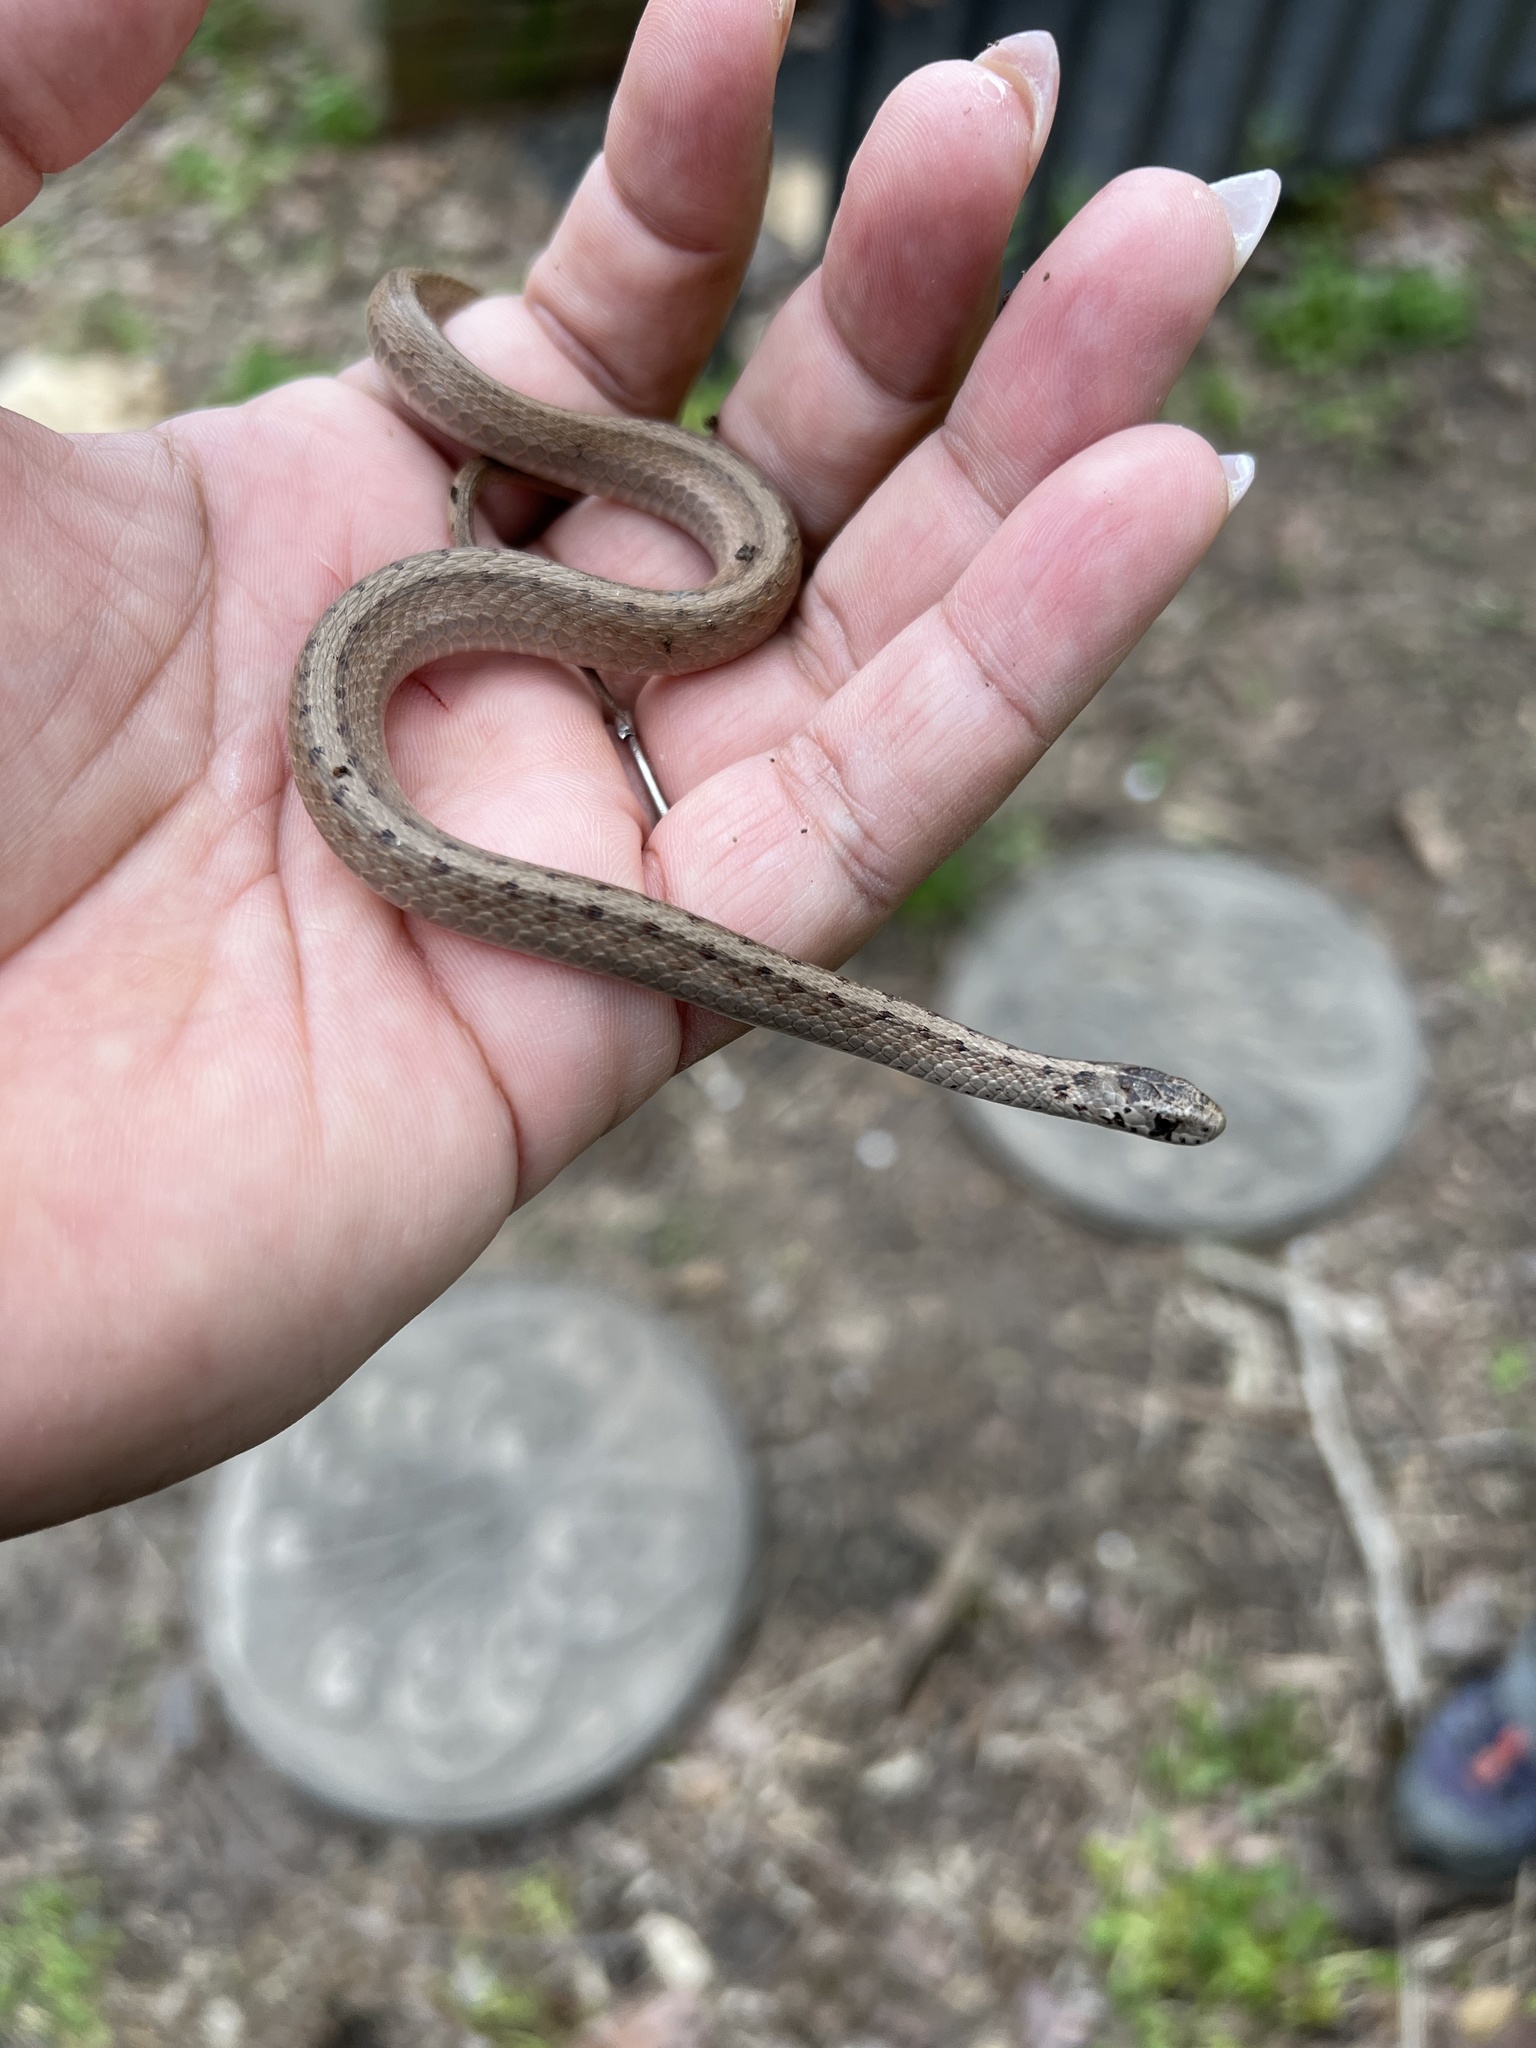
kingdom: Animalia
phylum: Chordata
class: Squamata
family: Colubridae
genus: Storeria
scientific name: Storeria dekayi
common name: (dekay’s) brown snake
